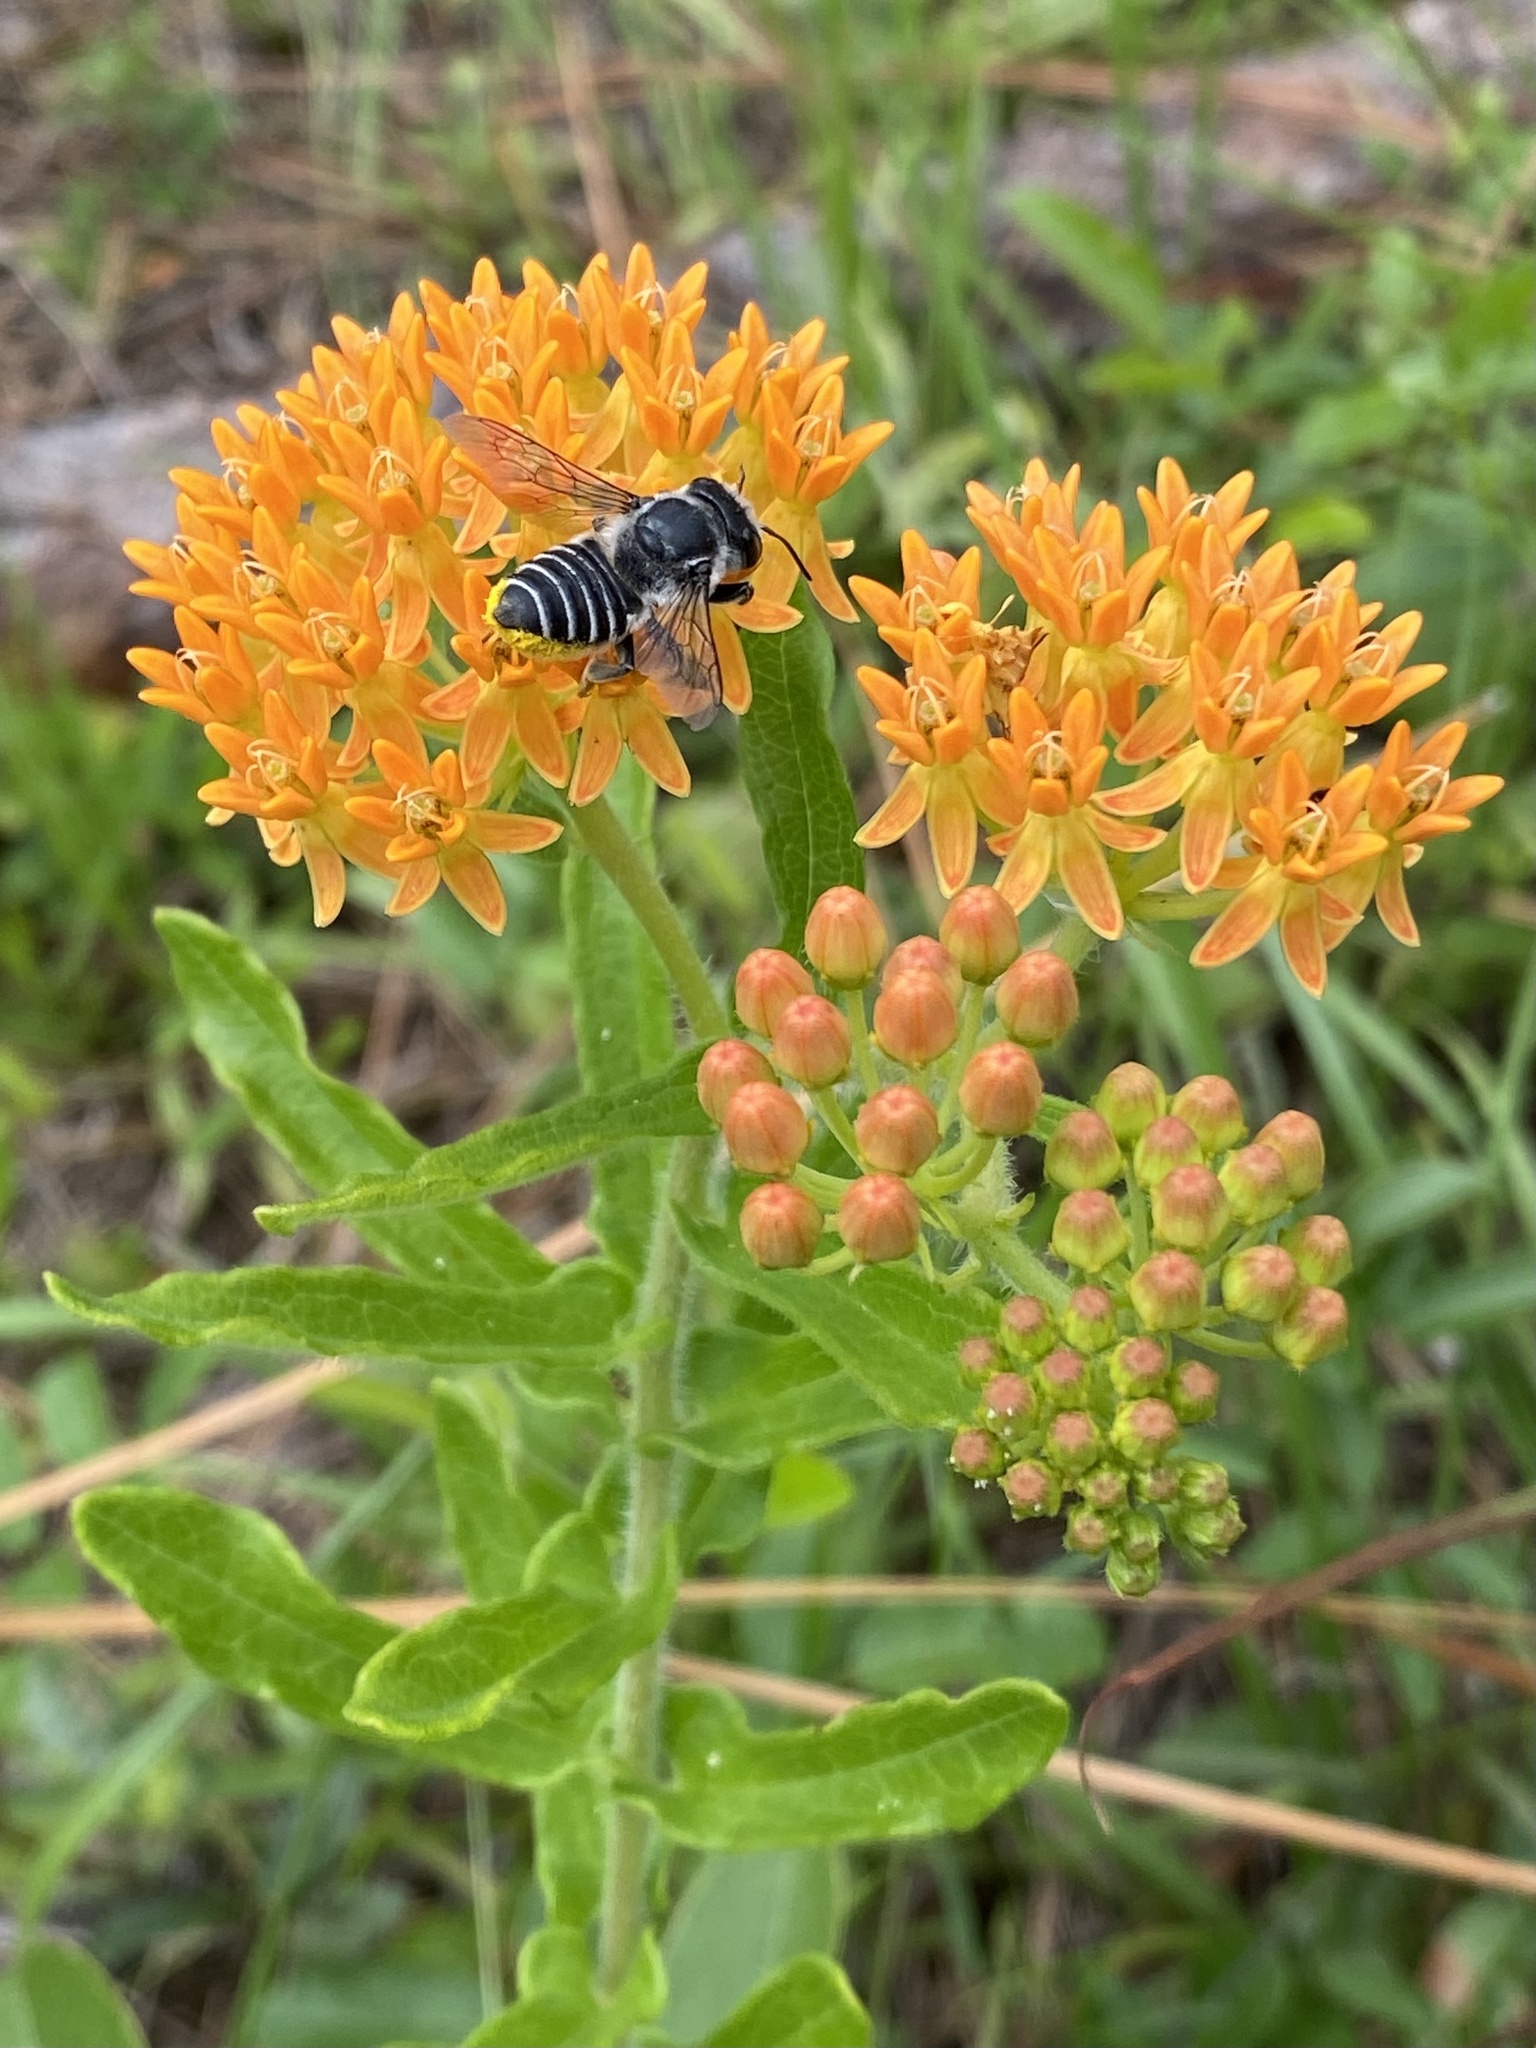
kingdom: Plantae
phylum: Tracheophyta
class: Magnoliopsida
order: Gentianales
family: Apocynaceae
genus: Asclepias
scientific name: Asclepias tuberosa
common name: Butterfly milkweed
